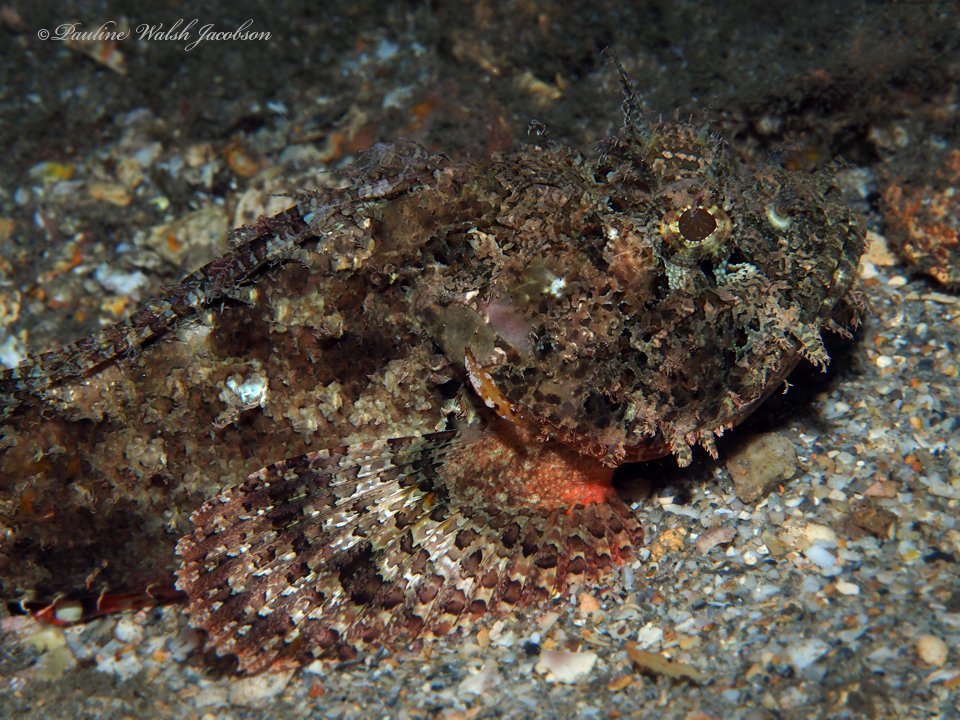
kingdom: Animalia
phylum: Chordata
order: Scorpaeniformes
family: Scorpaenidae
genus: Scorpaena
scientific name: Scorpaena plumieri
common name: Spotted scorpionfish
